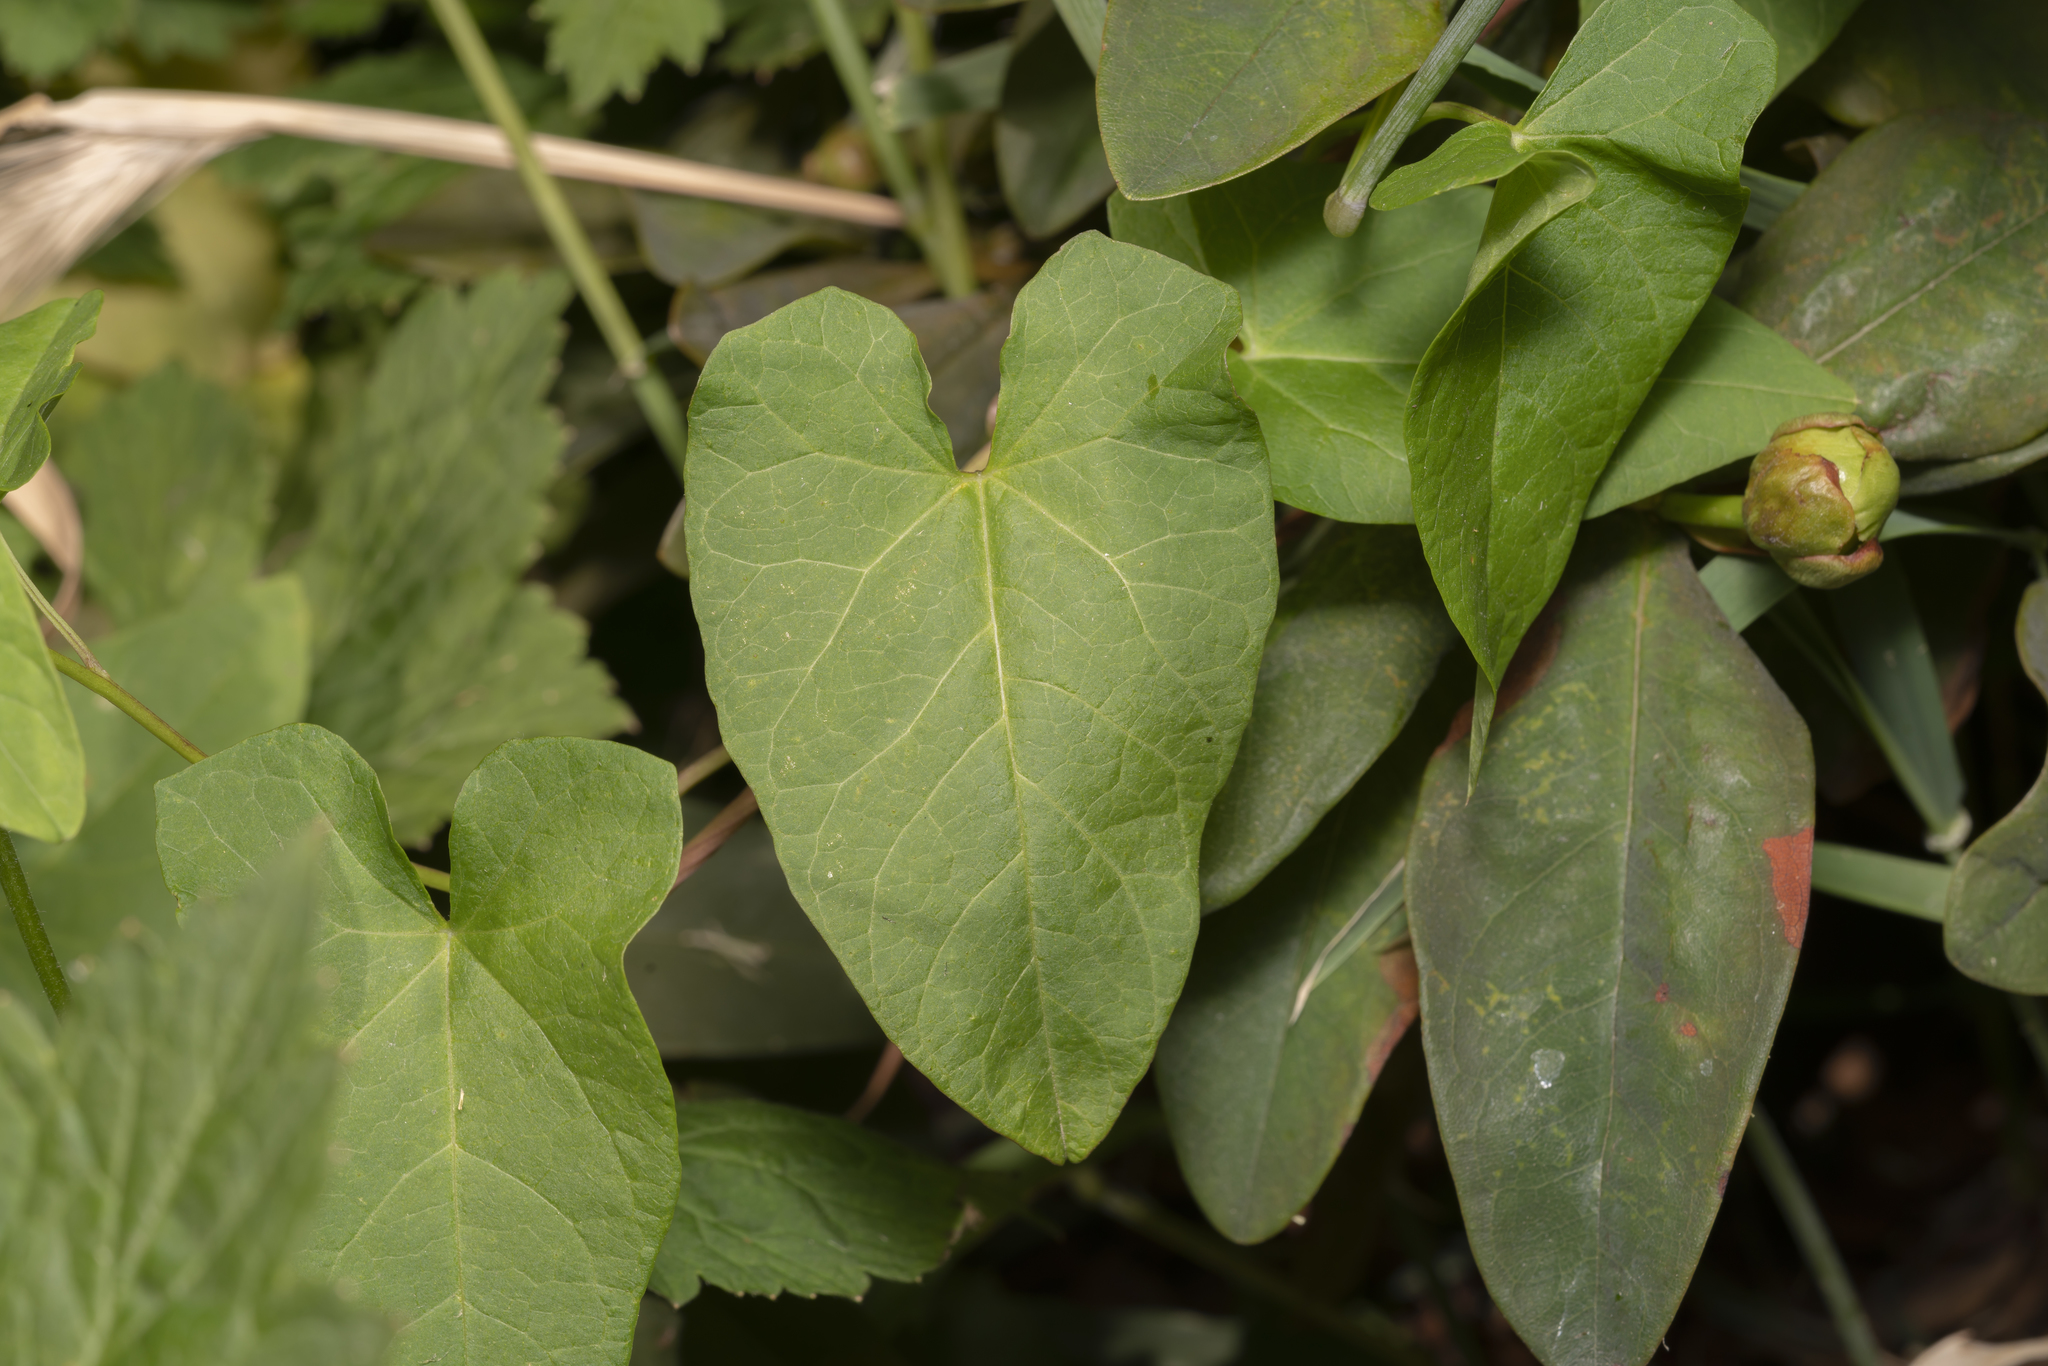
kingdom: Plantae
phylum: Tracheophyta
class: Magnoliopsida
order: Solanales
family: Convolvulaceae
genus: Calystegia
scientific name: Calystegia sepium
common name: Hedge bindweed
